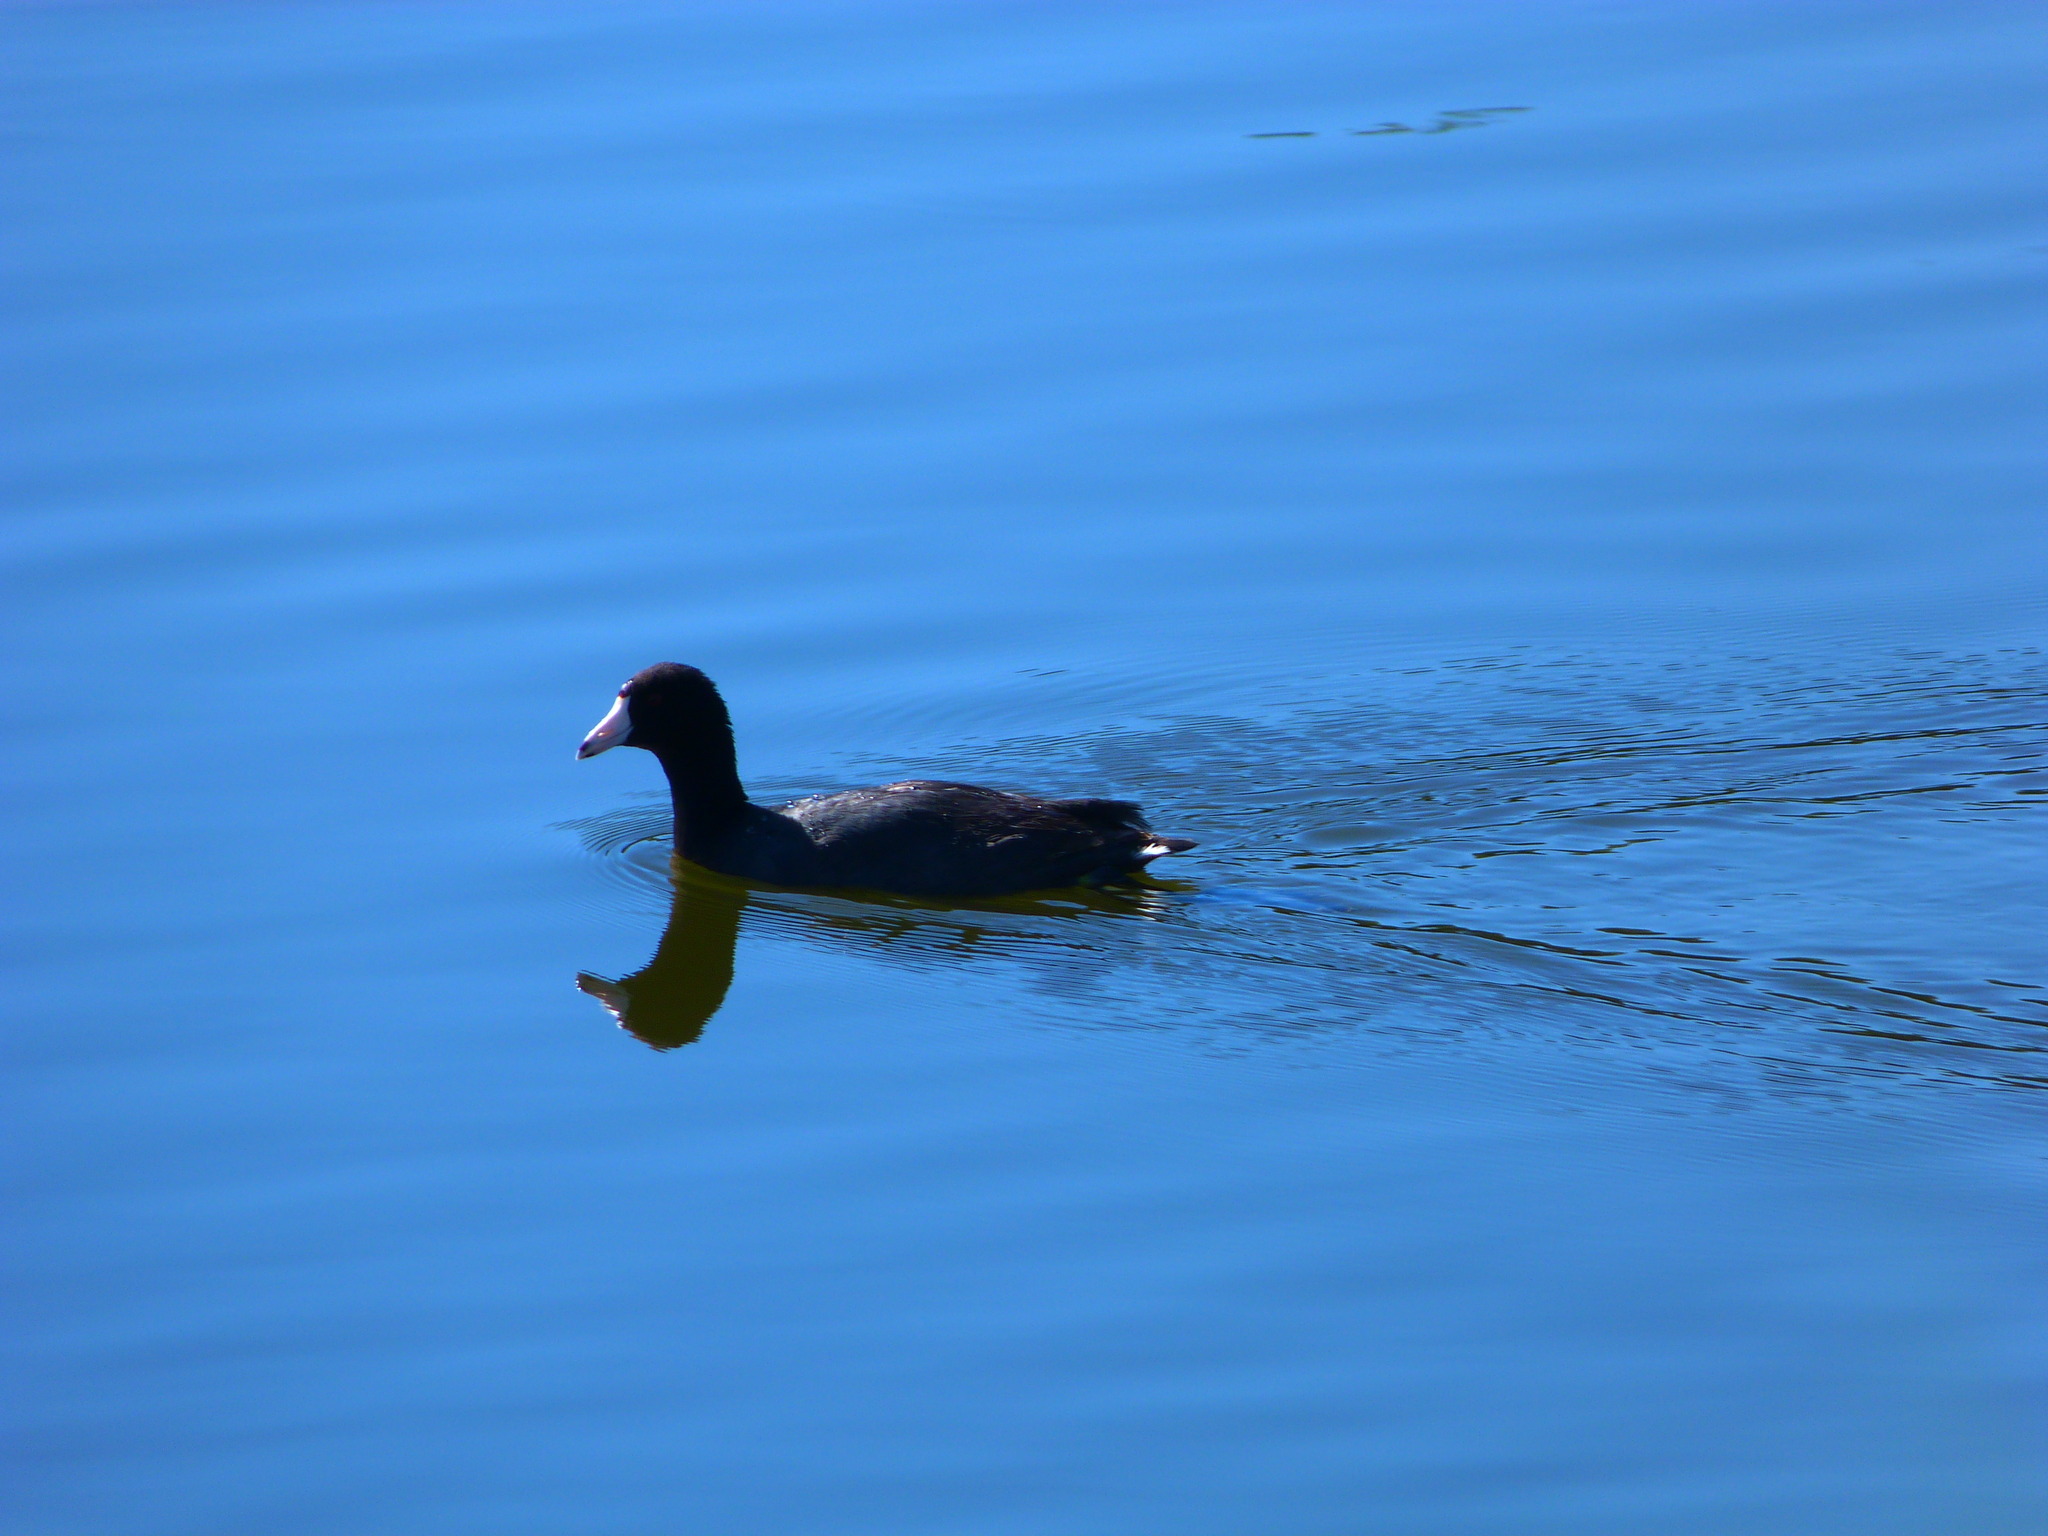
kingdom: Animalia
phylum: Chordata
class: Aves
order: Gruiformes
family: Rallidae
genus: Fulica
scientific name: Fulica americana
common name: American coot
